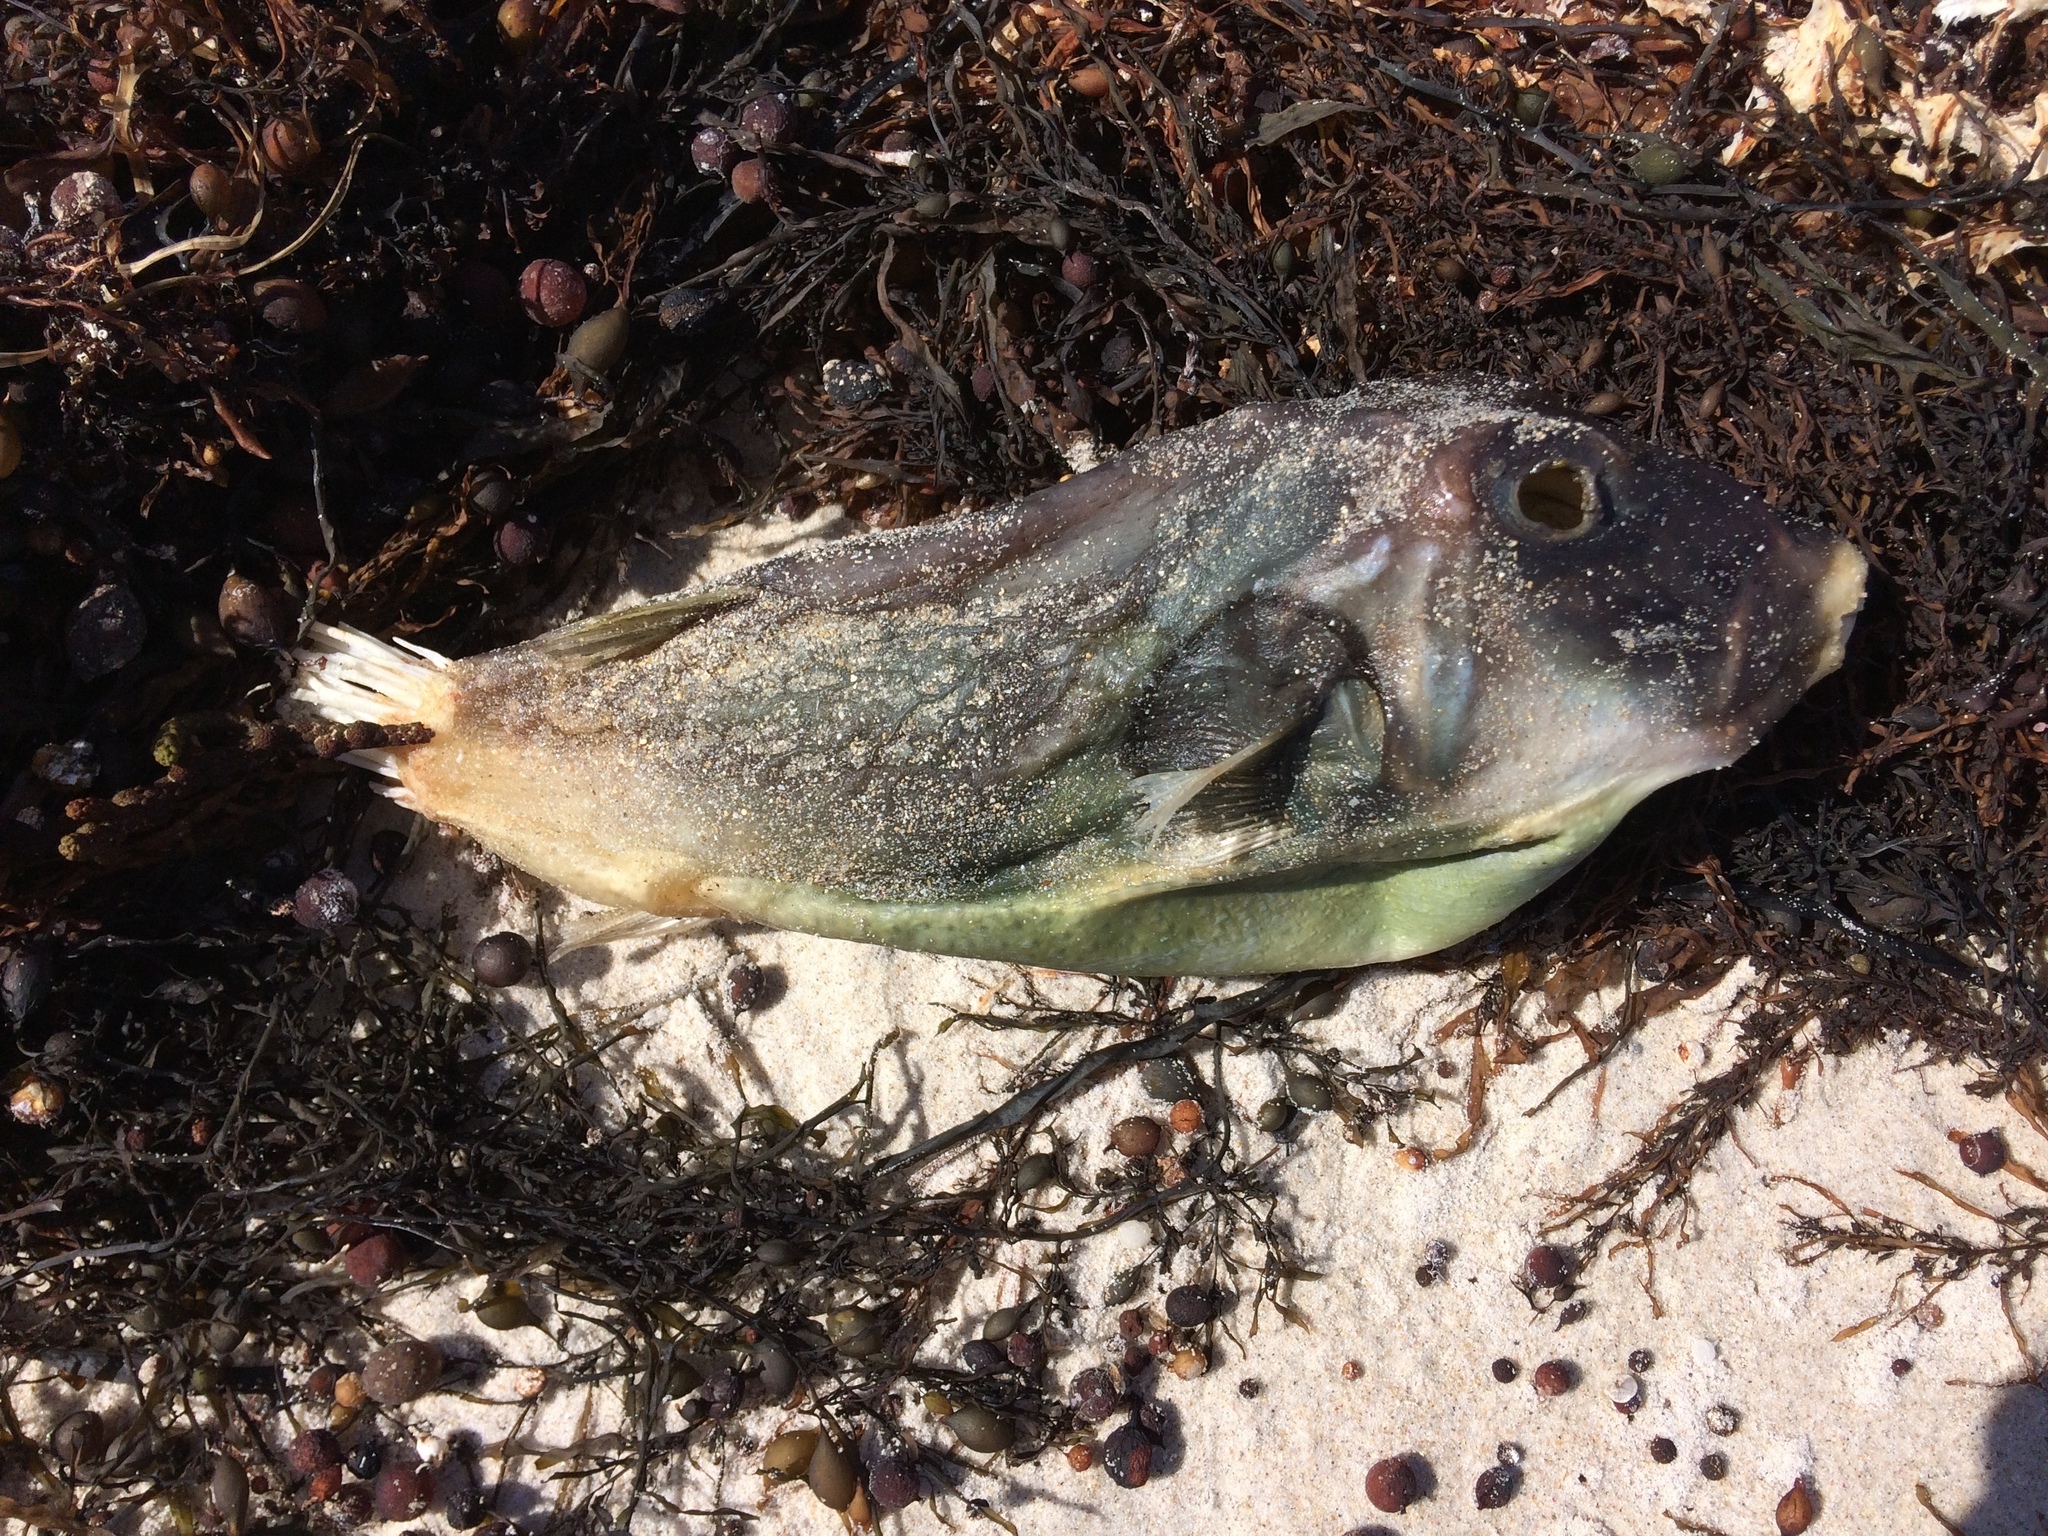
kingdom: Animalia
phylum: Chordata
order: Tetraodontiformes
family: Tetraodontidae
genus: Omegophora
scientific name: Omegophora armilla
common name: Ringed pufferfish
